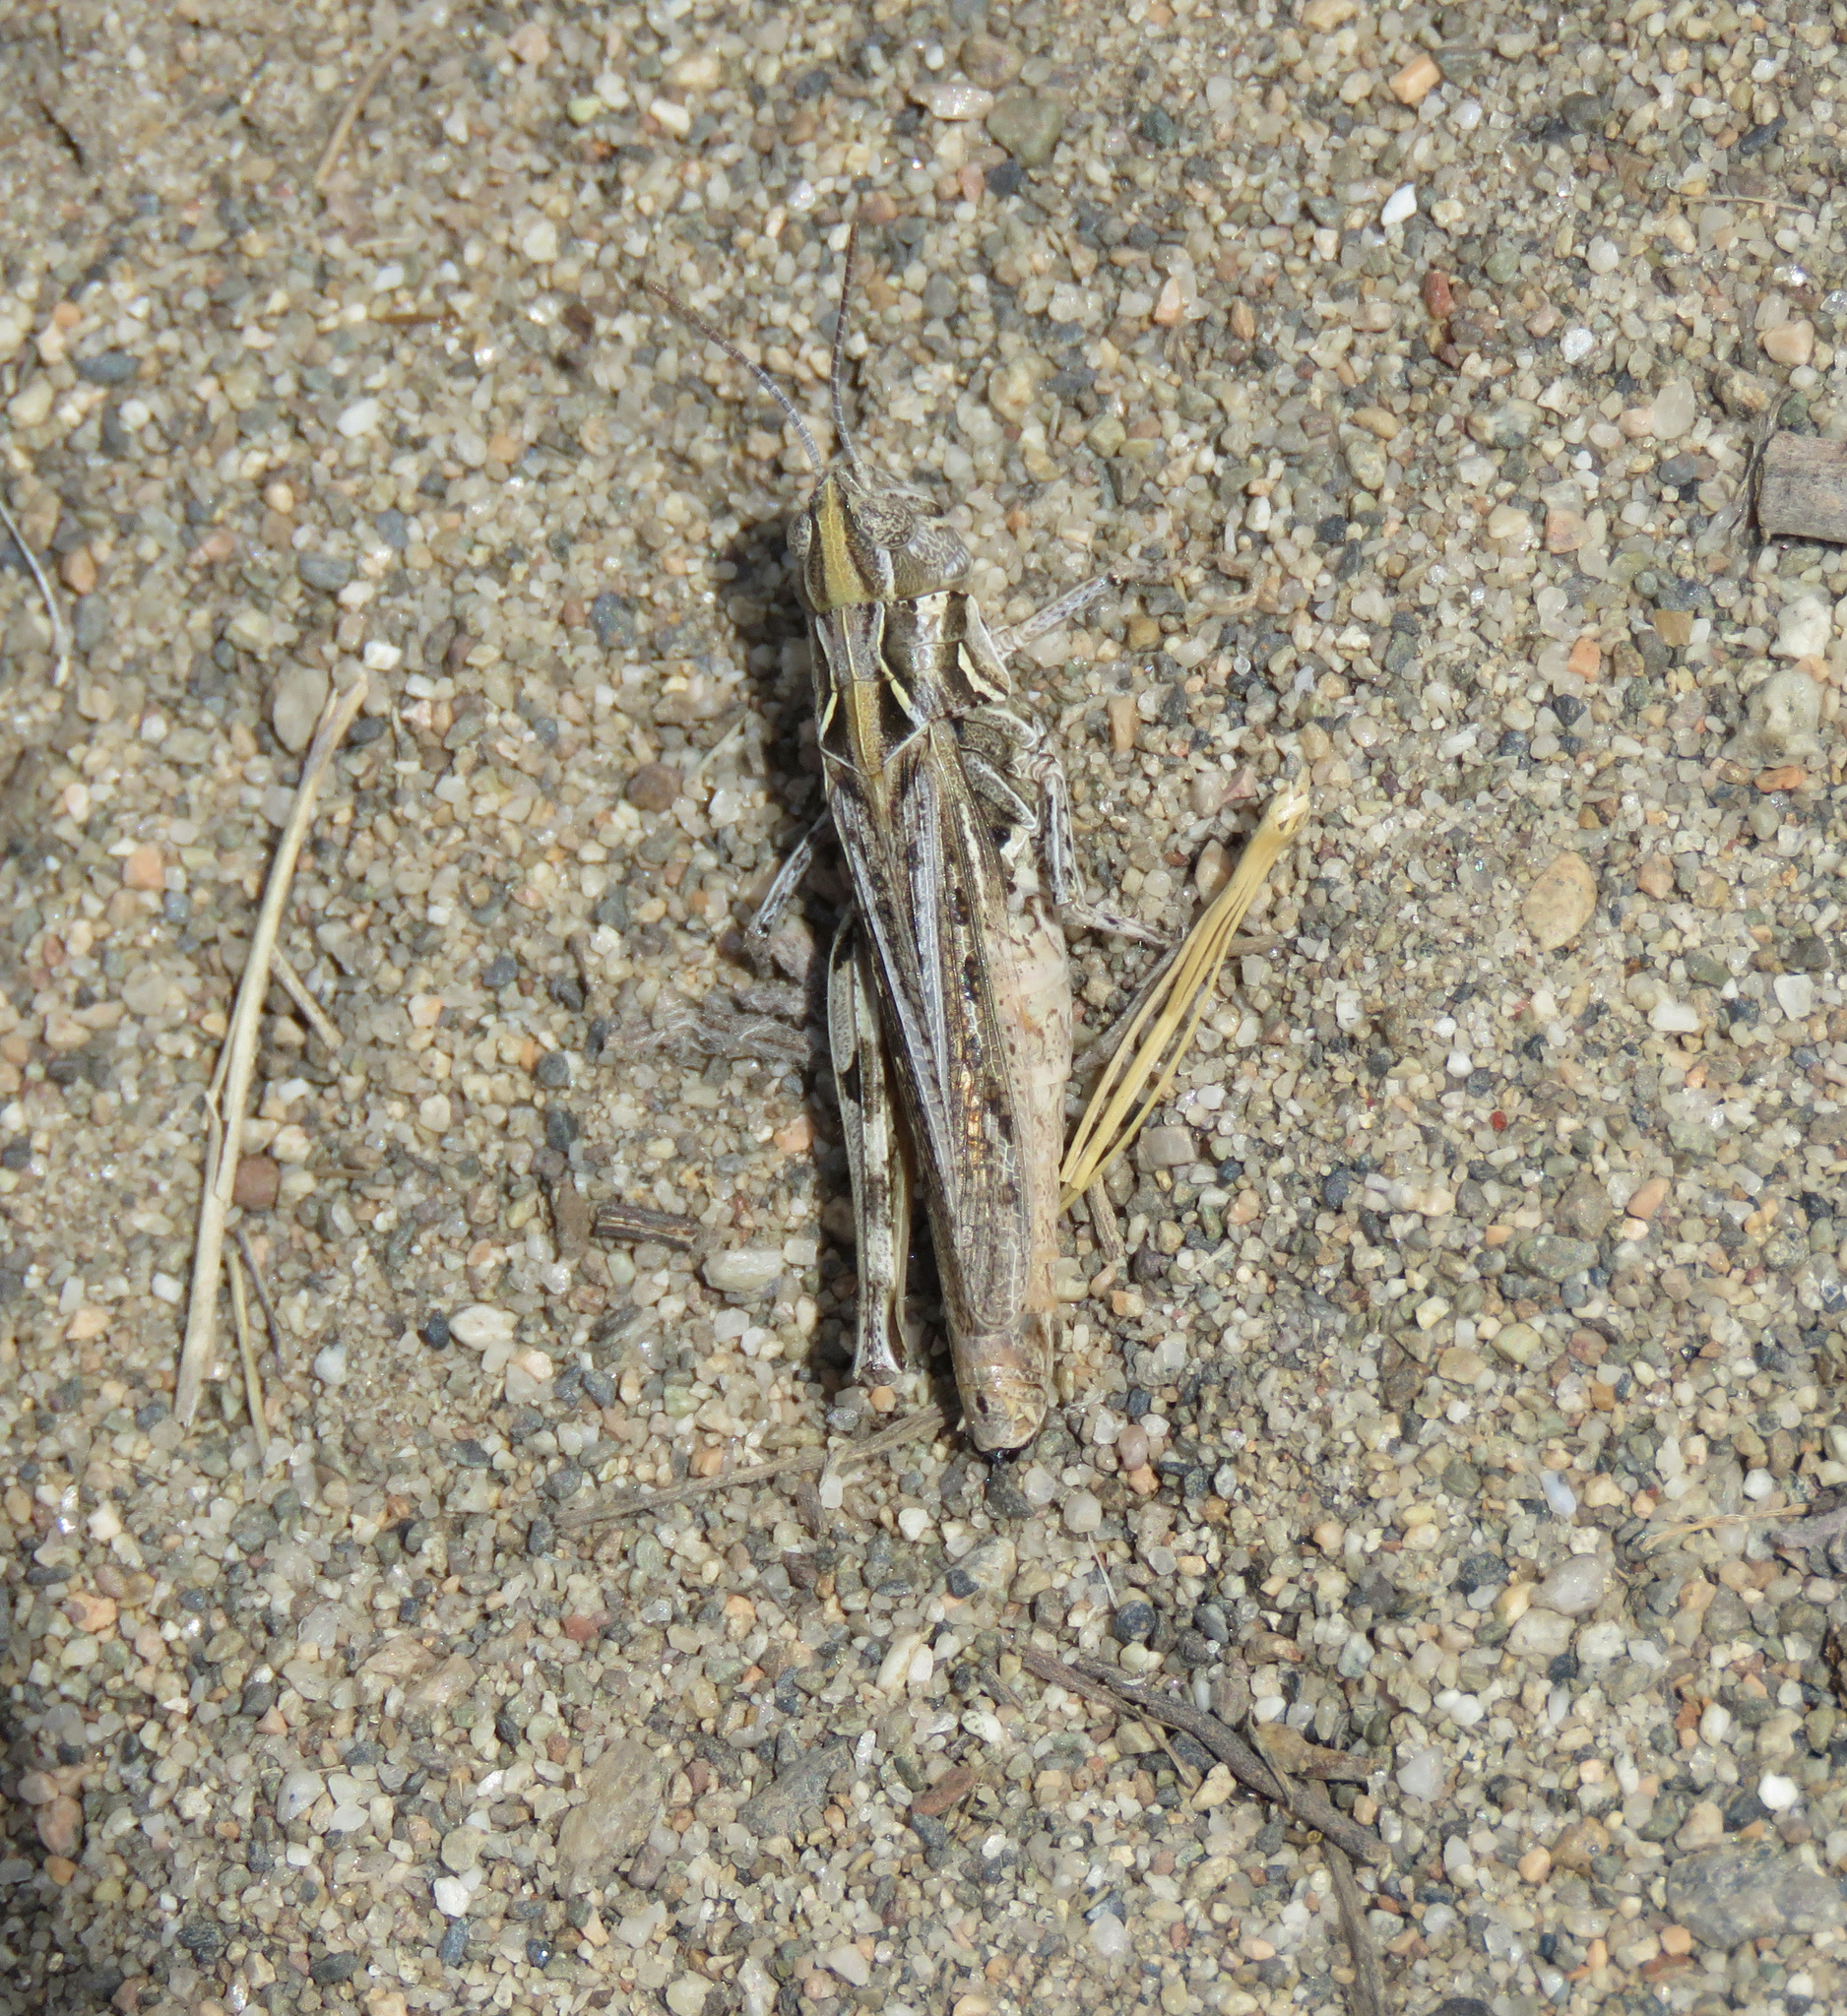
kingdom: Animalia
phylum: Arthropoda
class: Insecta
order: Orthoptera
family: Acrididae
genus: Psoloessa
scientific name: Psoloessa delicatula
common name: Brown-spotted range grasshopper
